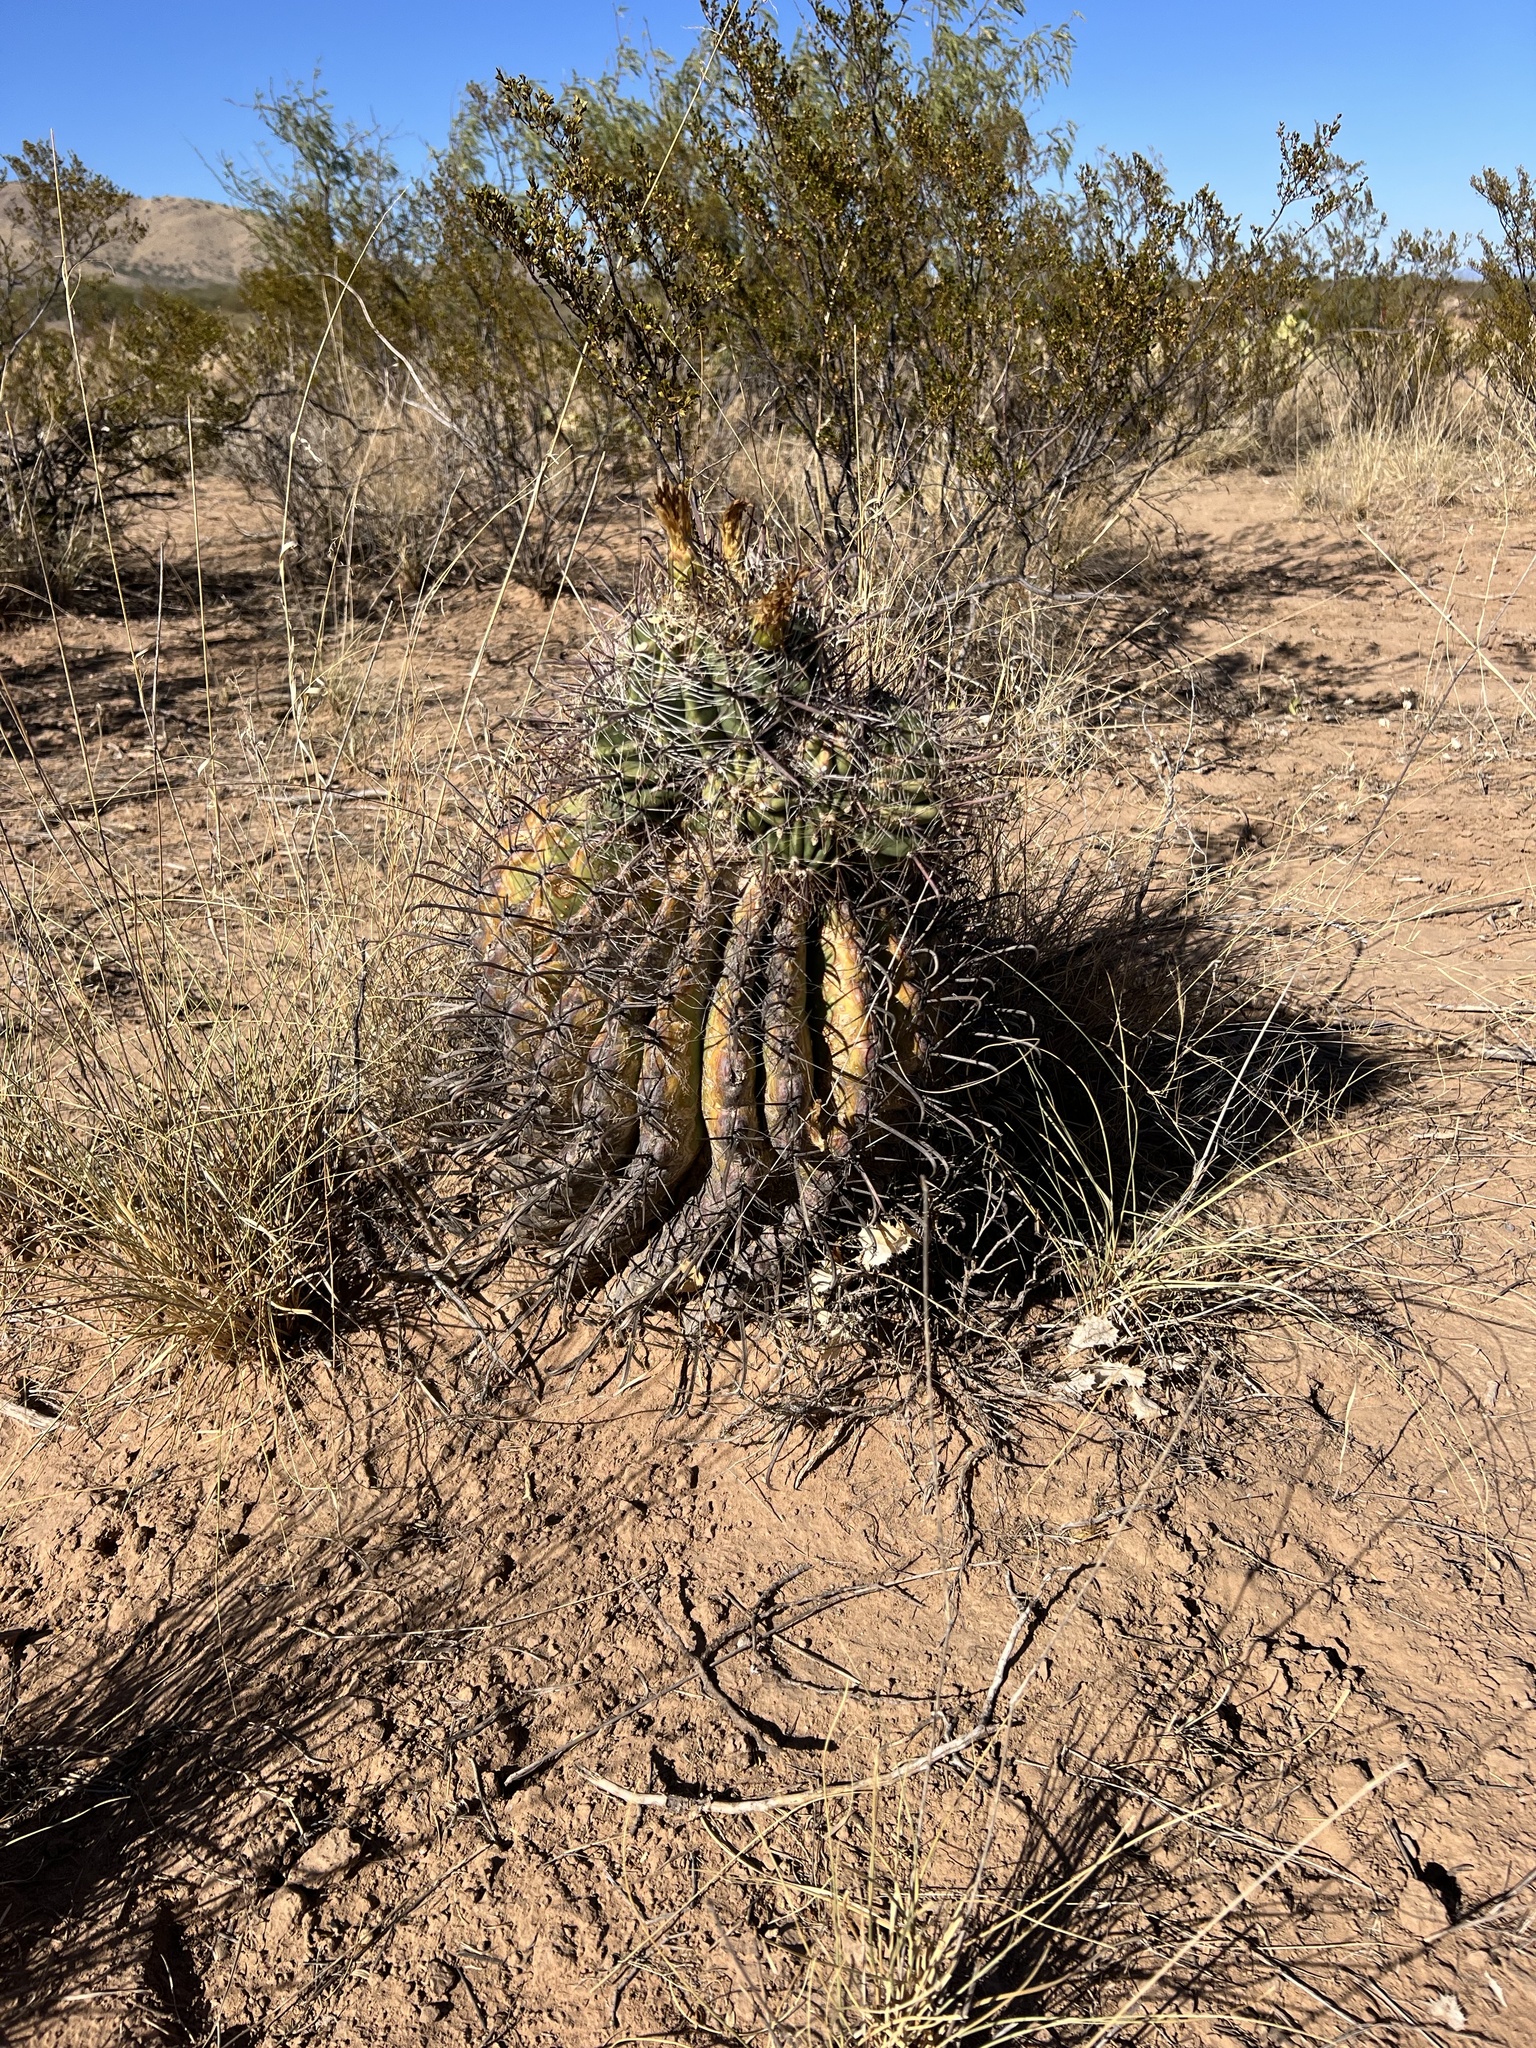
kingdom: Plantae
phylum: Tracheophyta
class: Magnoliopsida
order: Caryophyllales
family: Cactaceae
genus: Ferocactus
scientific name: Ferocactus wislizeni
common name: Candy barrel cactus
